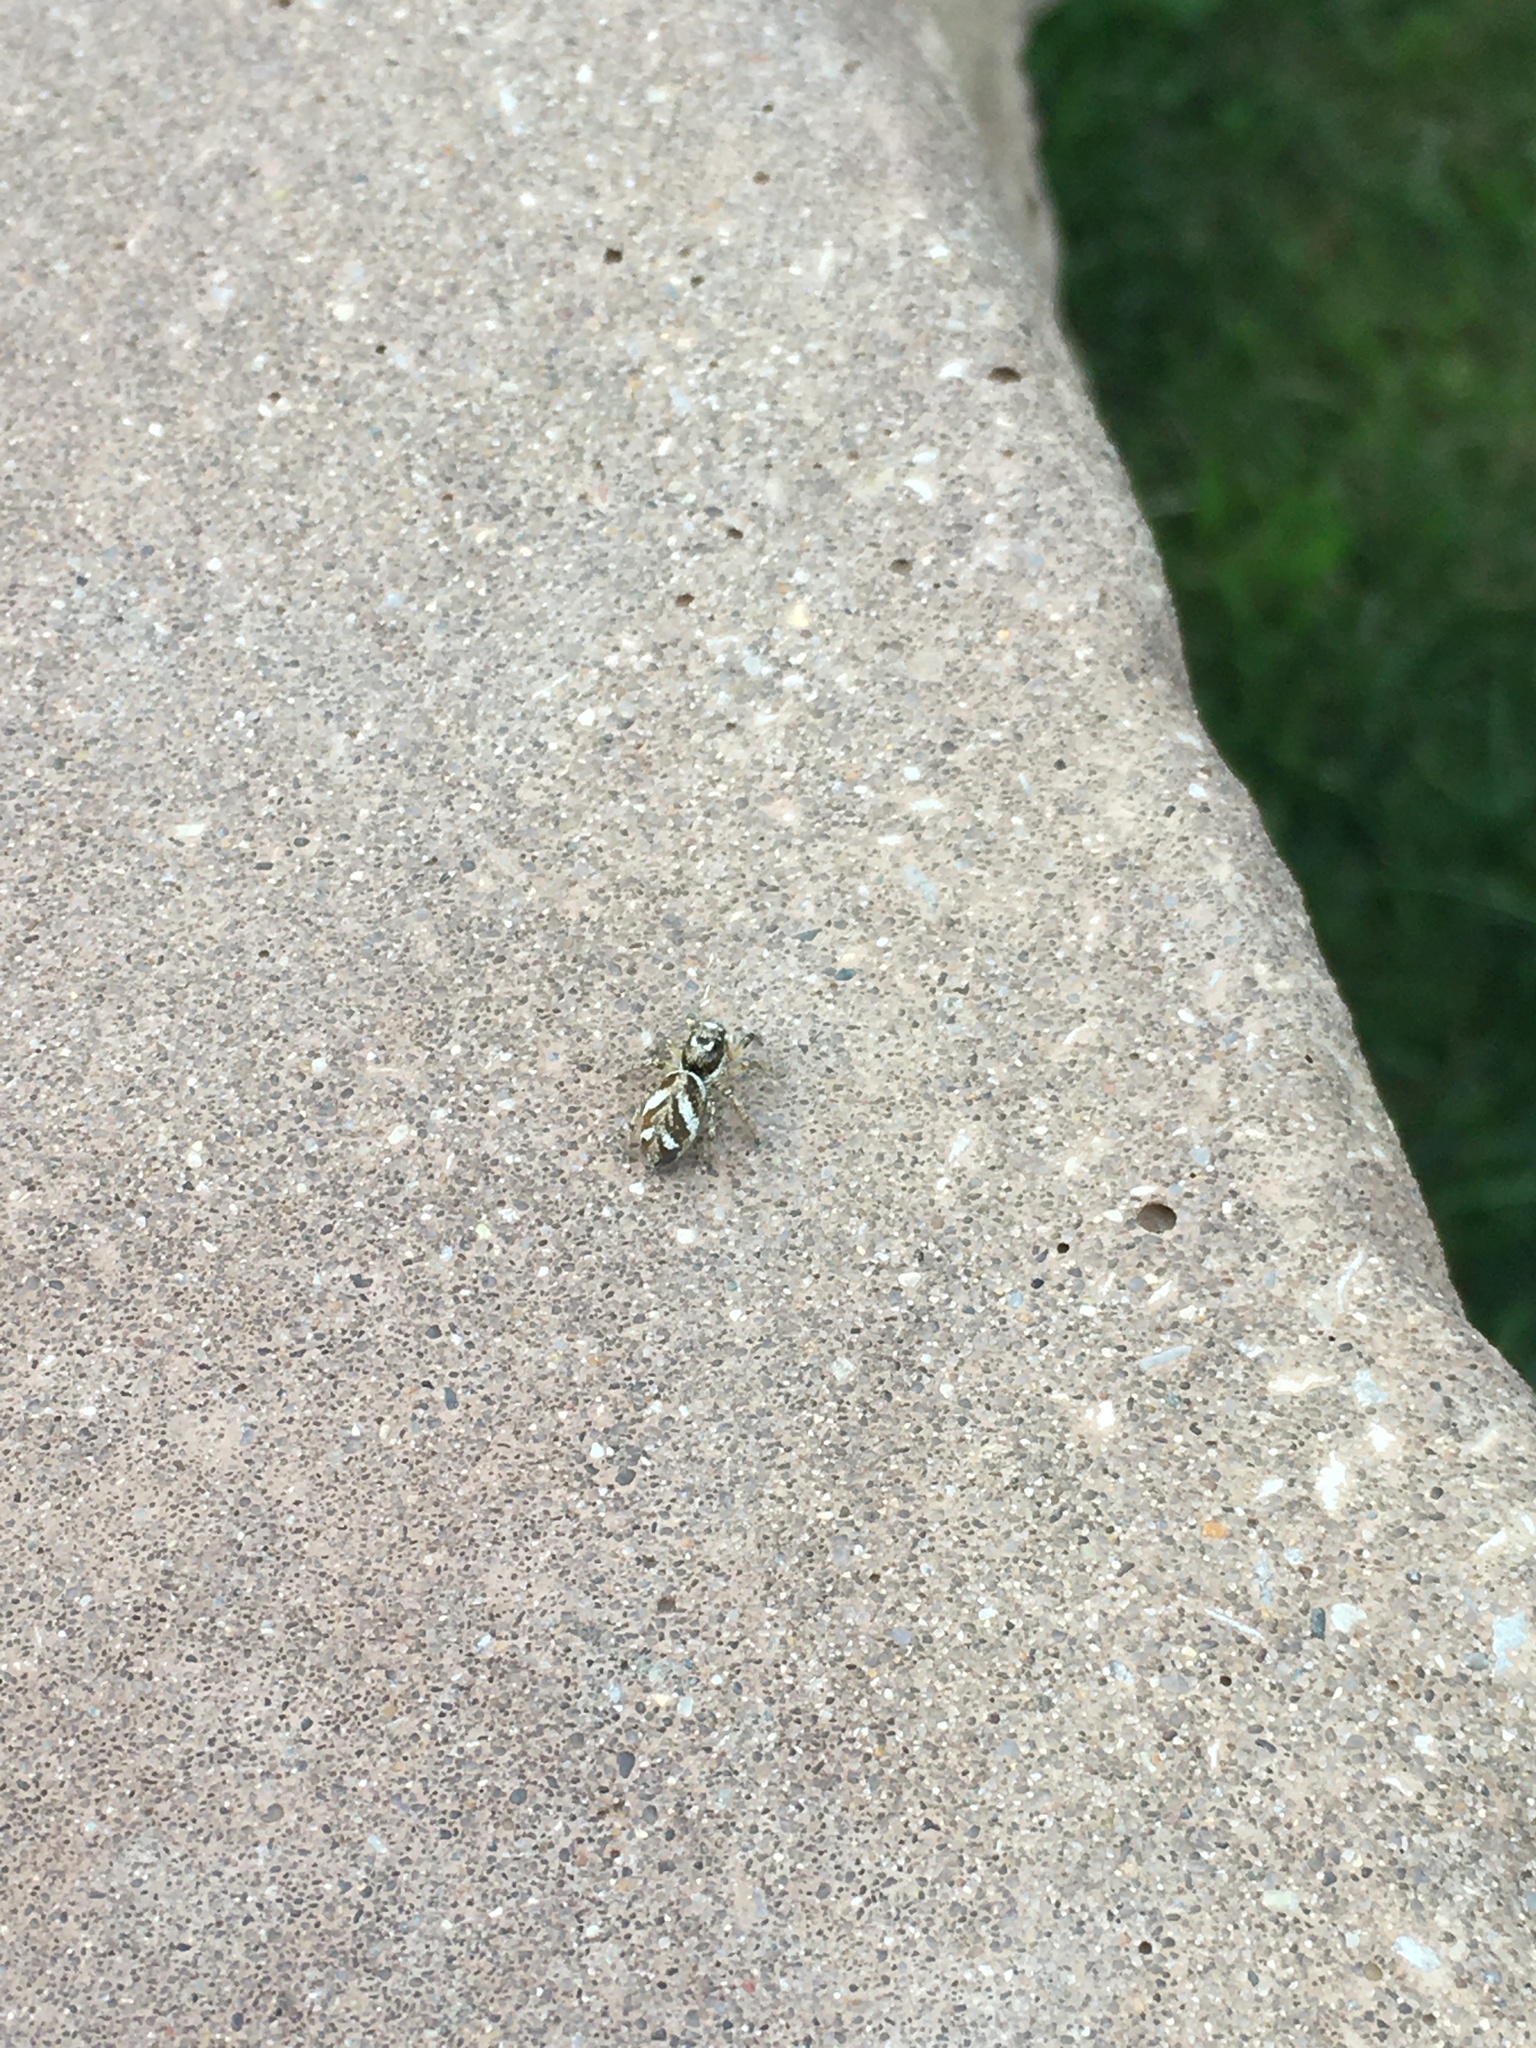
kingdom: Animalia
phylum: Arthropoda
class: Arachnida
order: Araneae
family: Salticidae
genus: Salticus
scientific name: Salticus scenicus
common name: Zebra jumper
